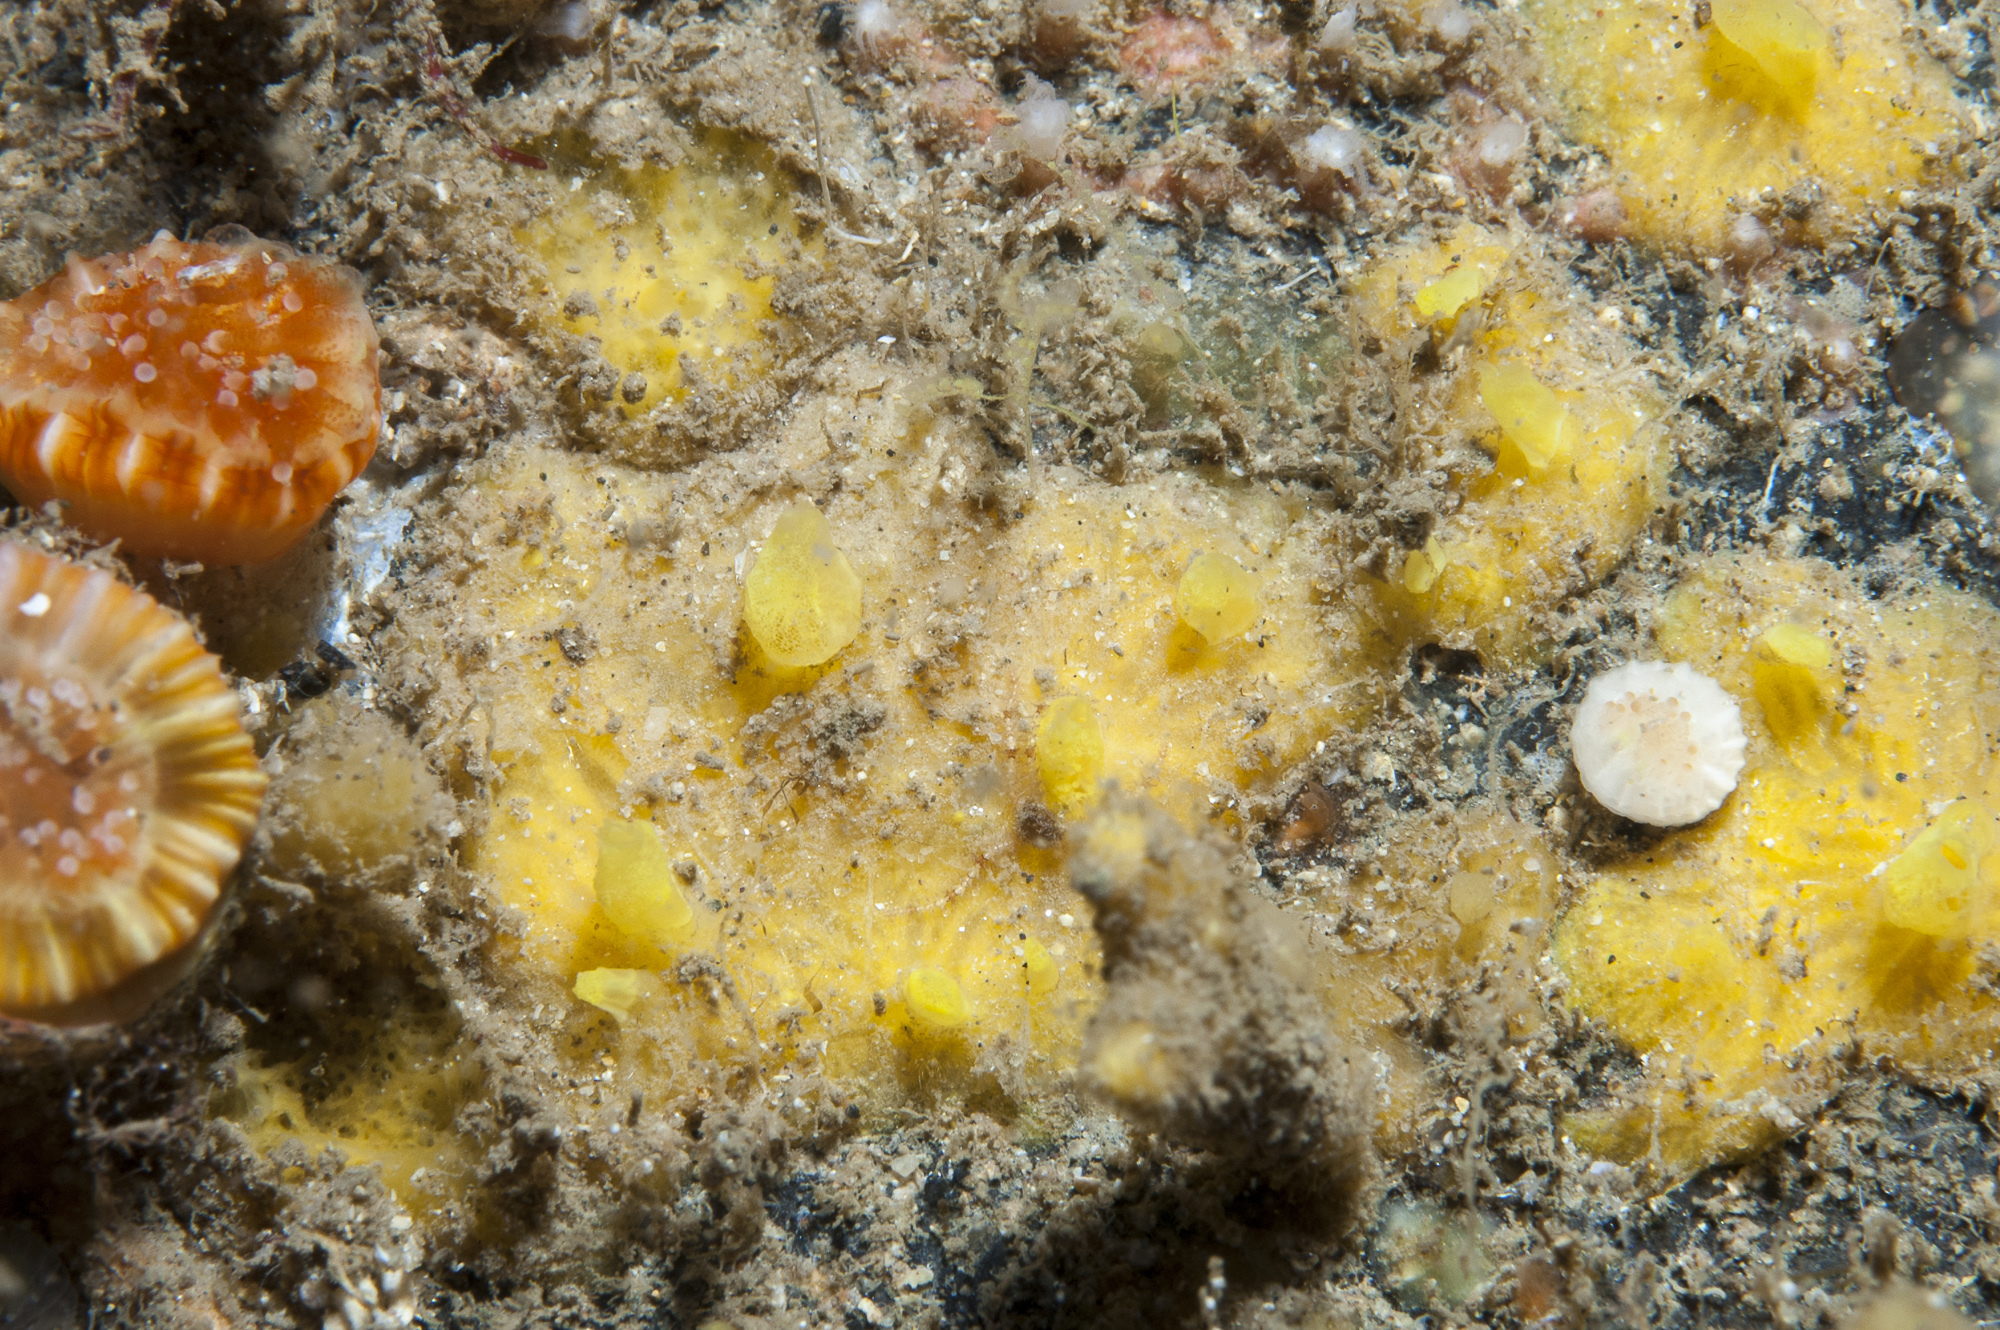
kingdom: Animalia
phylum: Porifera
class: Demospongiae
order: Poecilosclerida
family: Hymedesmiidae
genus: Hymedesmia
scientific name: Hymedesmia rathlinia
